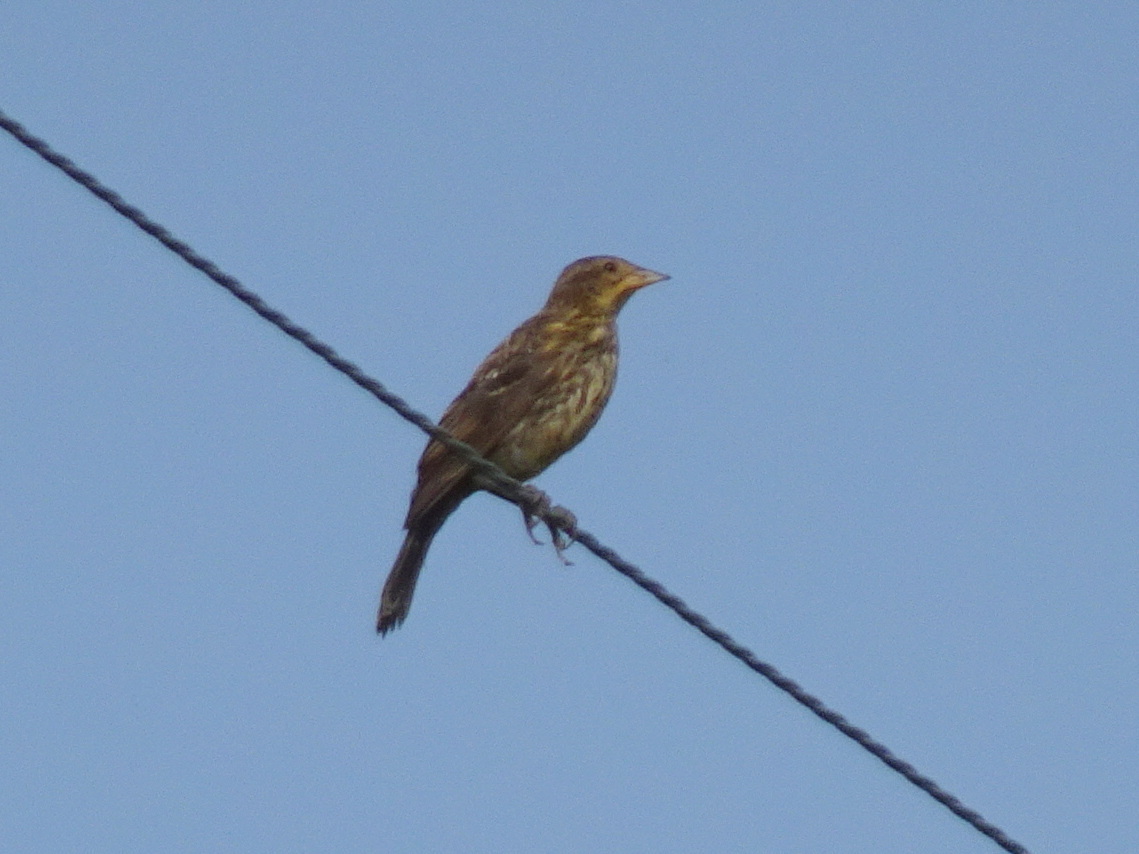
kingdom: Animalia
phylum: Chordata
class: Aves
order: Passeriformes
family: Icteridae
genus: Agelaius
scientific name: Agelaius phoeniceus
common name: Red-winged blackbird
